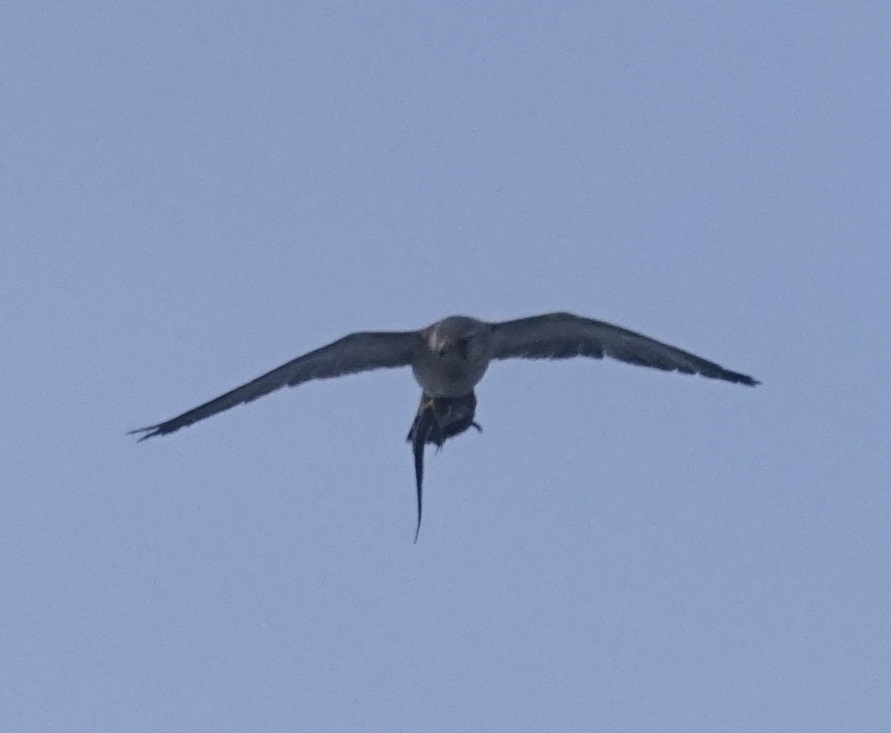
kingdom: Animalia
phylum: Chordata
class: Aves
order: Falconiformes
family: Falconidae
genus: Falco
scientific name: Falco cenchroides
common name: Nankeen kestrel
